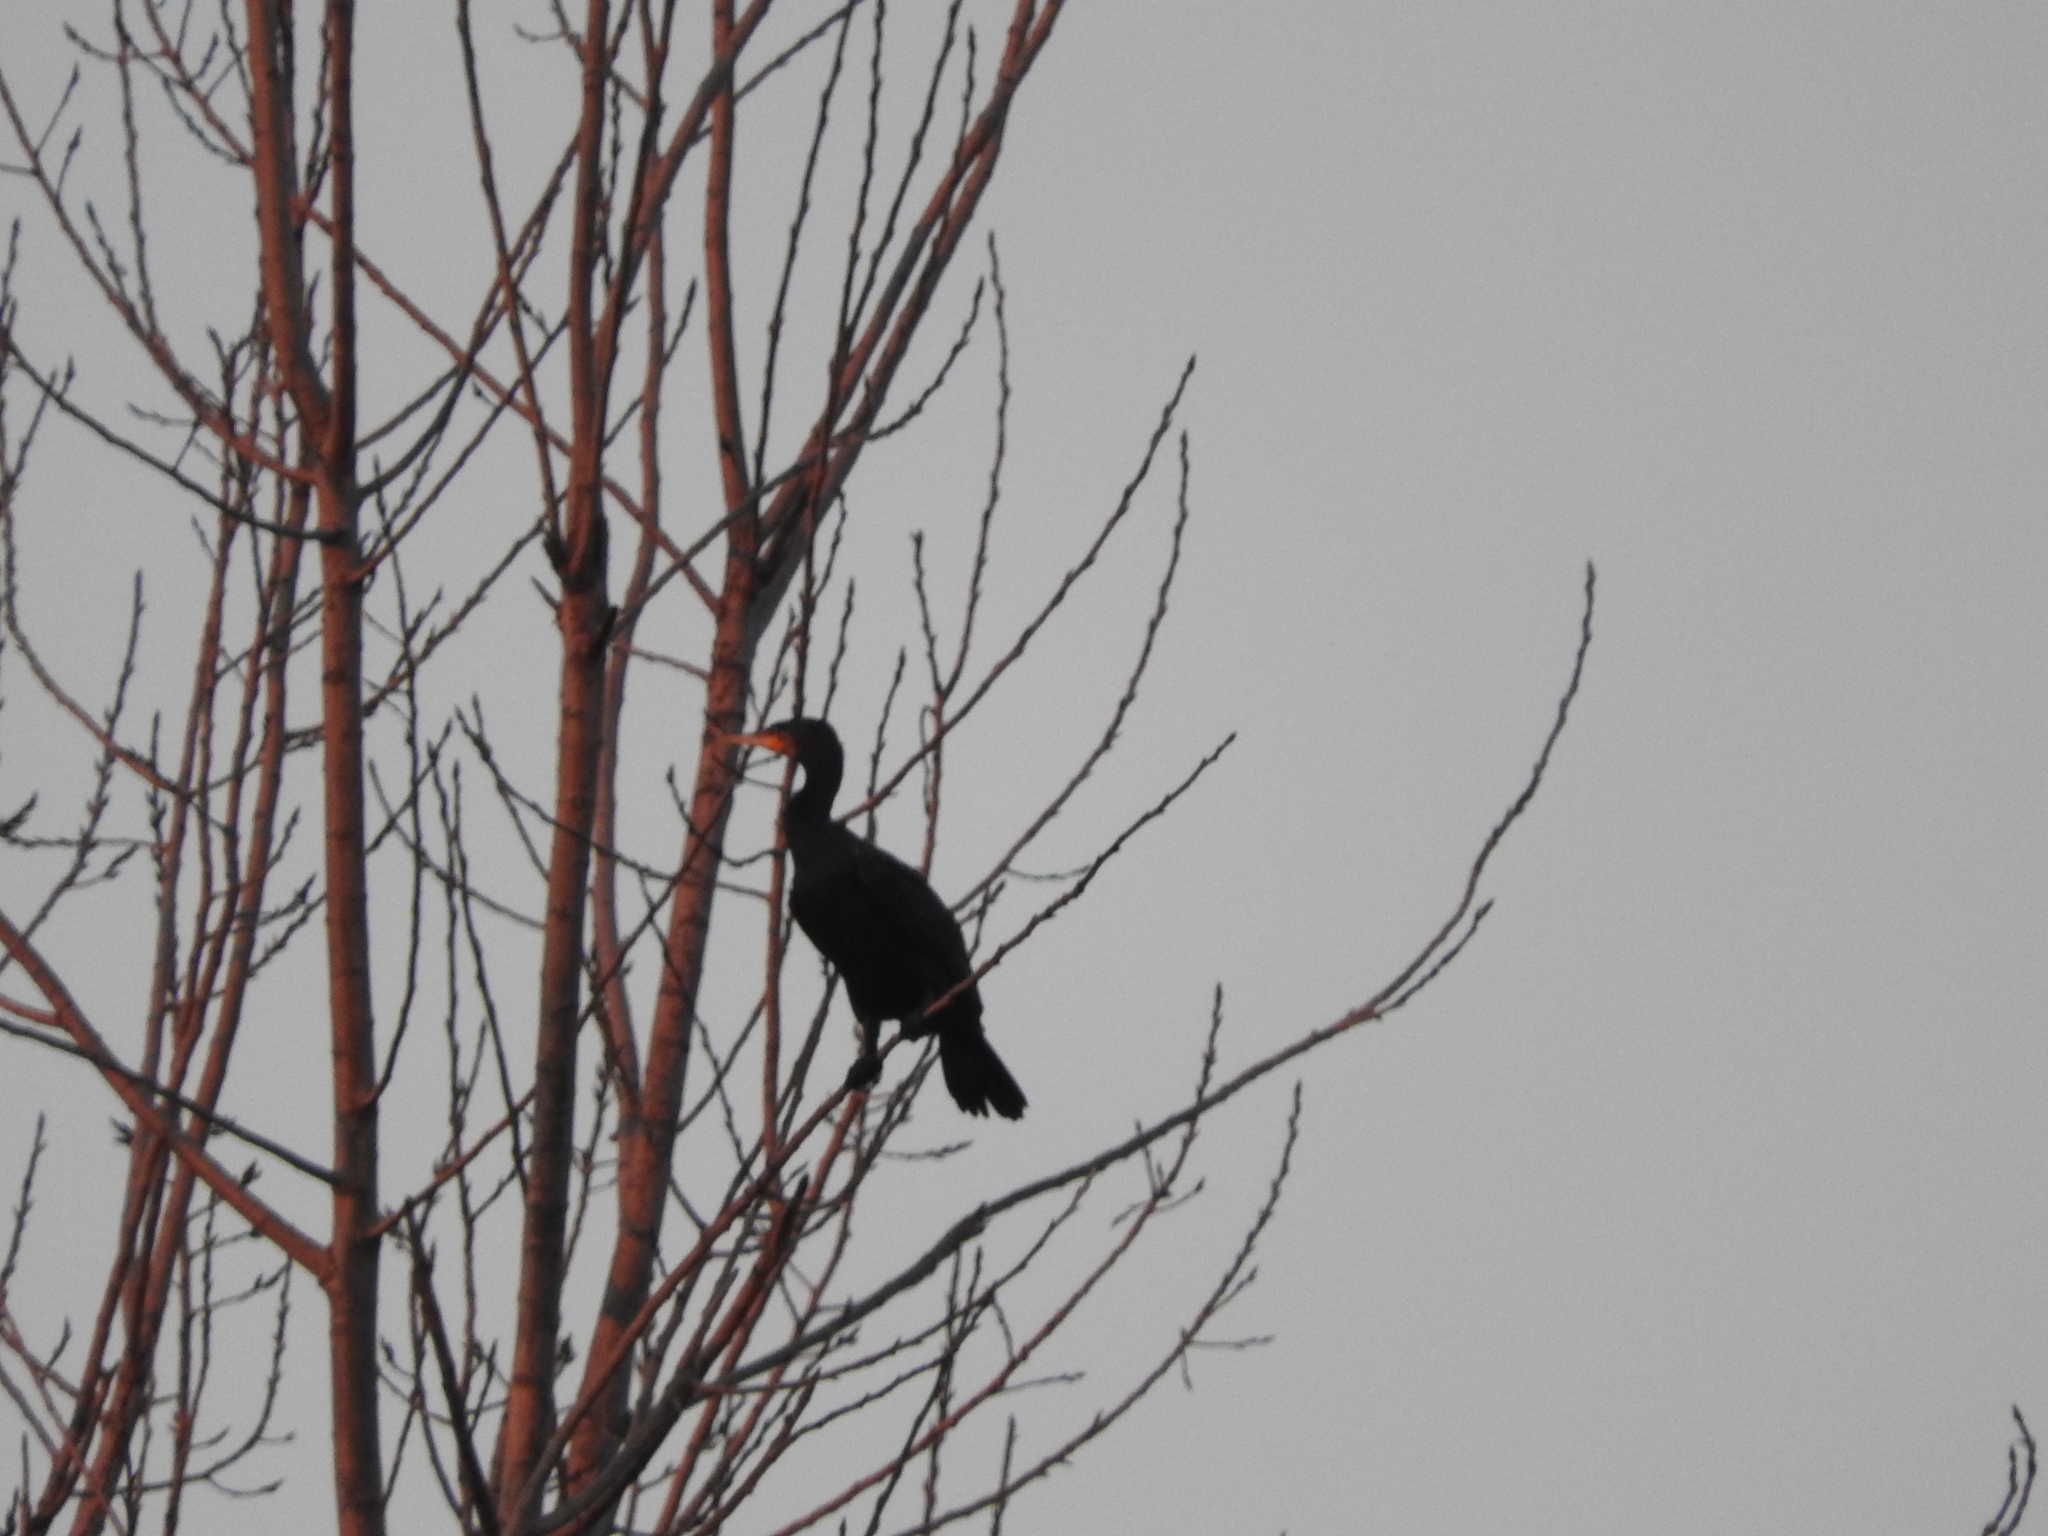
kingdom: Animalia
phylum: Chordata
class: Aves
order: Suliformes
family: Phalacrocoracidae
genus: Phalacrocorax
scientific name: Phalacrocorax carbo
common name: Great cormorant
